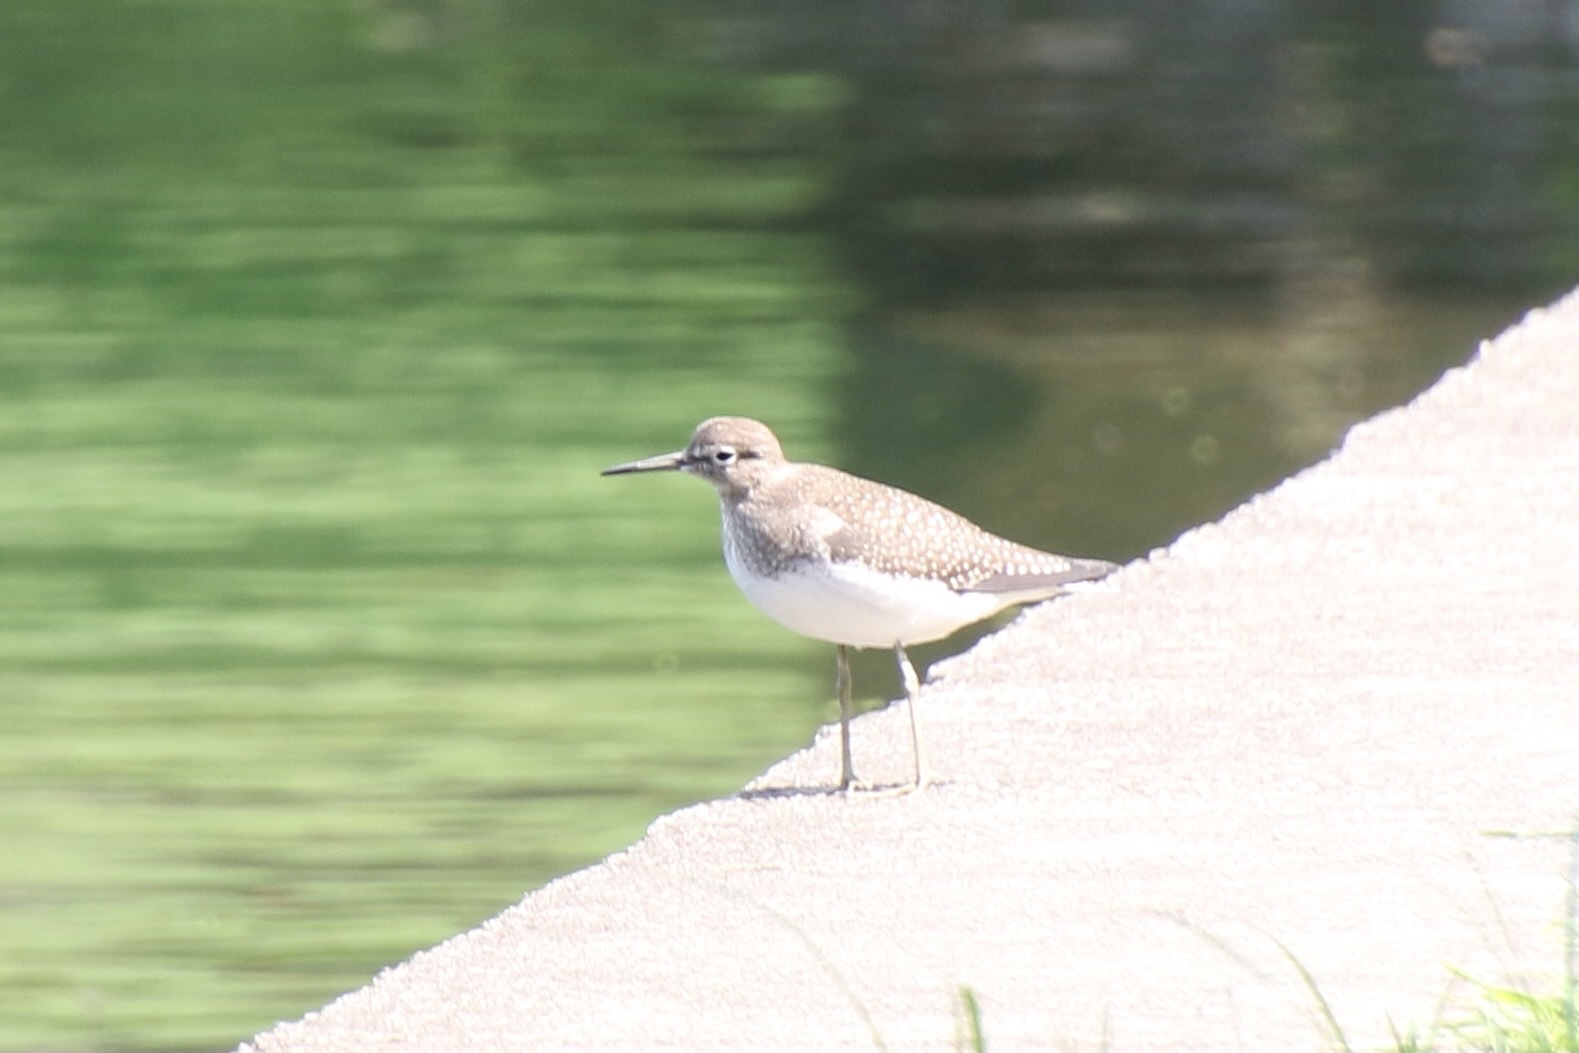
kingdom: Animalia
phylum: Chordata
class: Aves
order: Charadriiformes
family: Scolopacidae
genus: Tringa
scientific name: Tringa solitaria
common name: Solitary sandpiper
